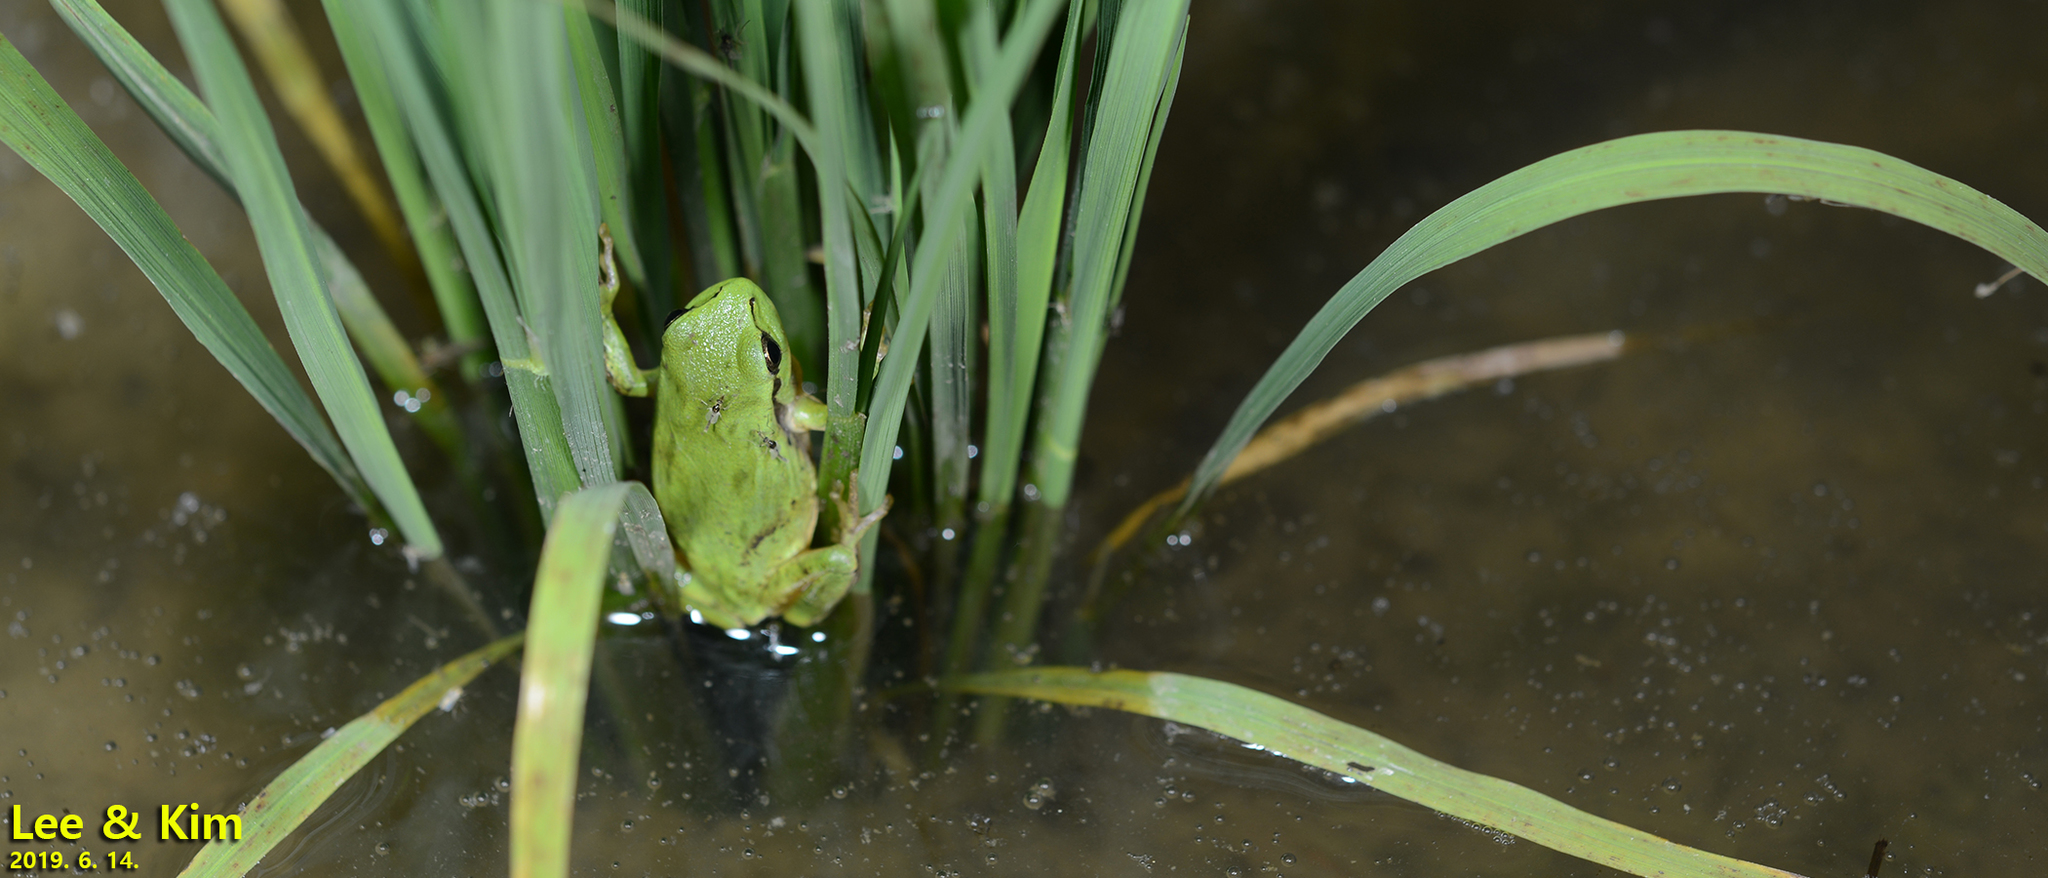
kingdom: Animalia
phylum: Chordata
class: Amphibia
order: Anura
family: Hylidae
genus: Dryophytes
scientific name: Dryophytes immaculatus
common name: North china treefrog
